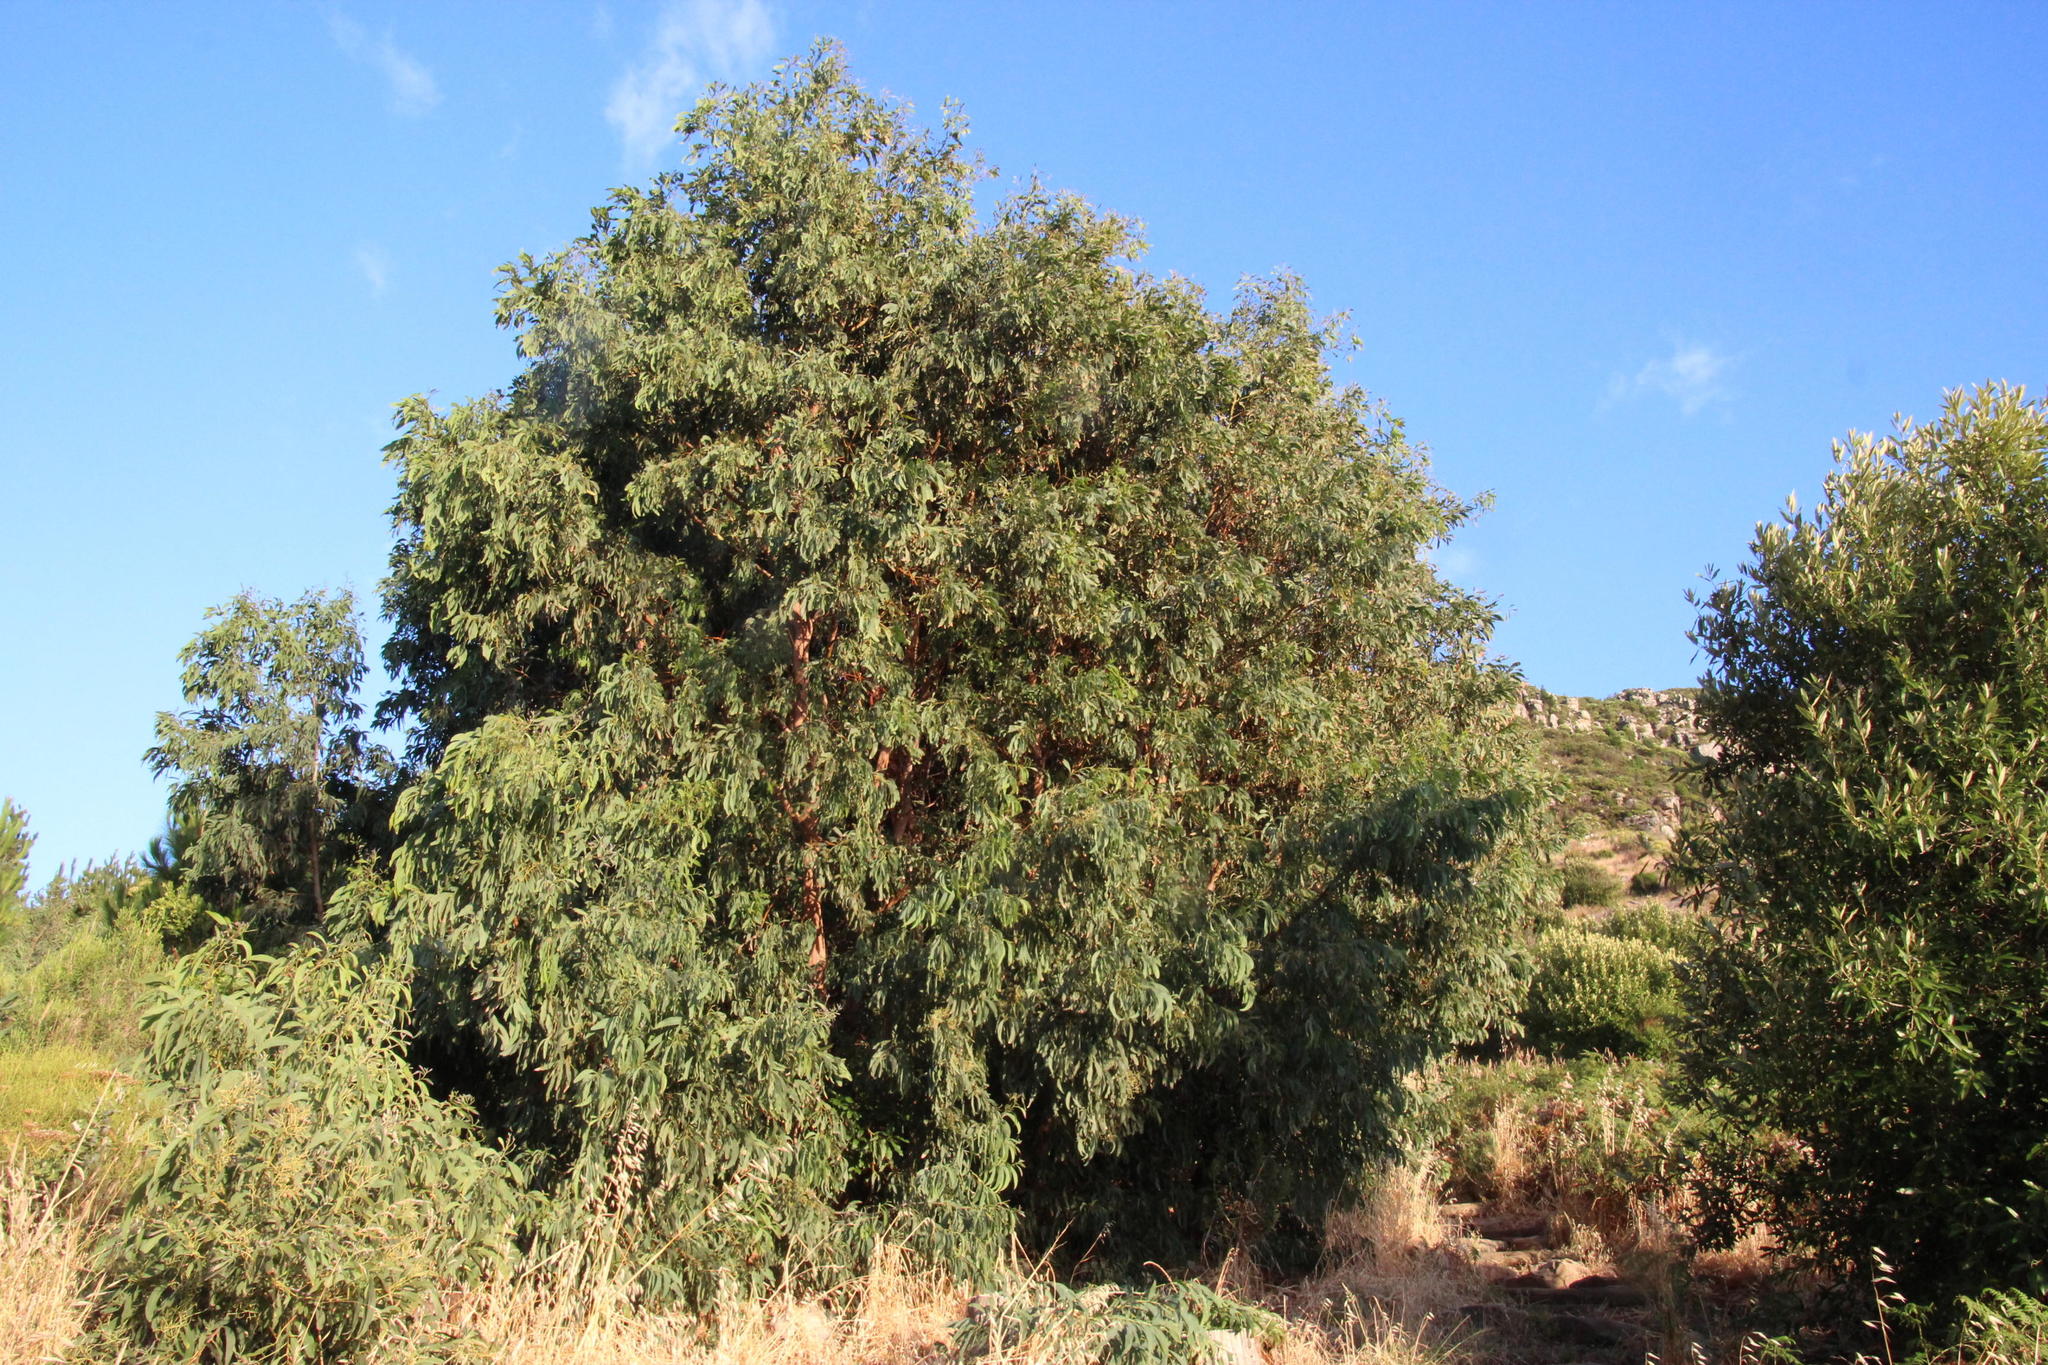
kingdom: Plantae
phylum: Tracheophyta
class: Magnoliopsida
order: Fabales
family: Fabaceae
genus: Acacia
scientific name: Acacia falciformis
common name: Tanning wattle
